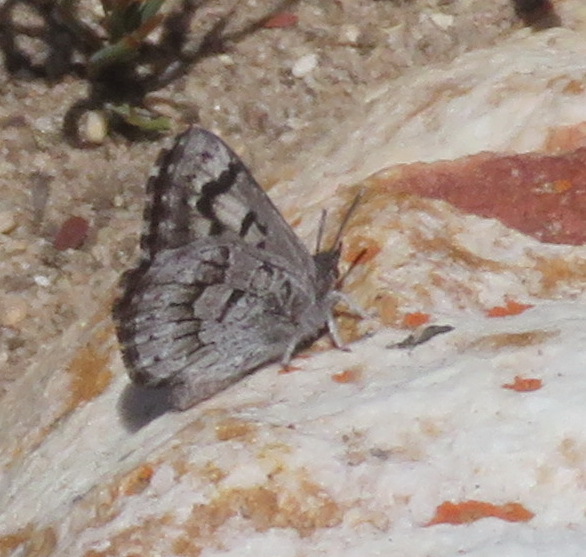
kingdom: Animalia
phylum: Arthropoda
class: Insecta
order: Lepidoptera
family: Lycaenidae
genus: Thestor
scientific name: Thestor penningtoni
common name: Pennington's skolly
